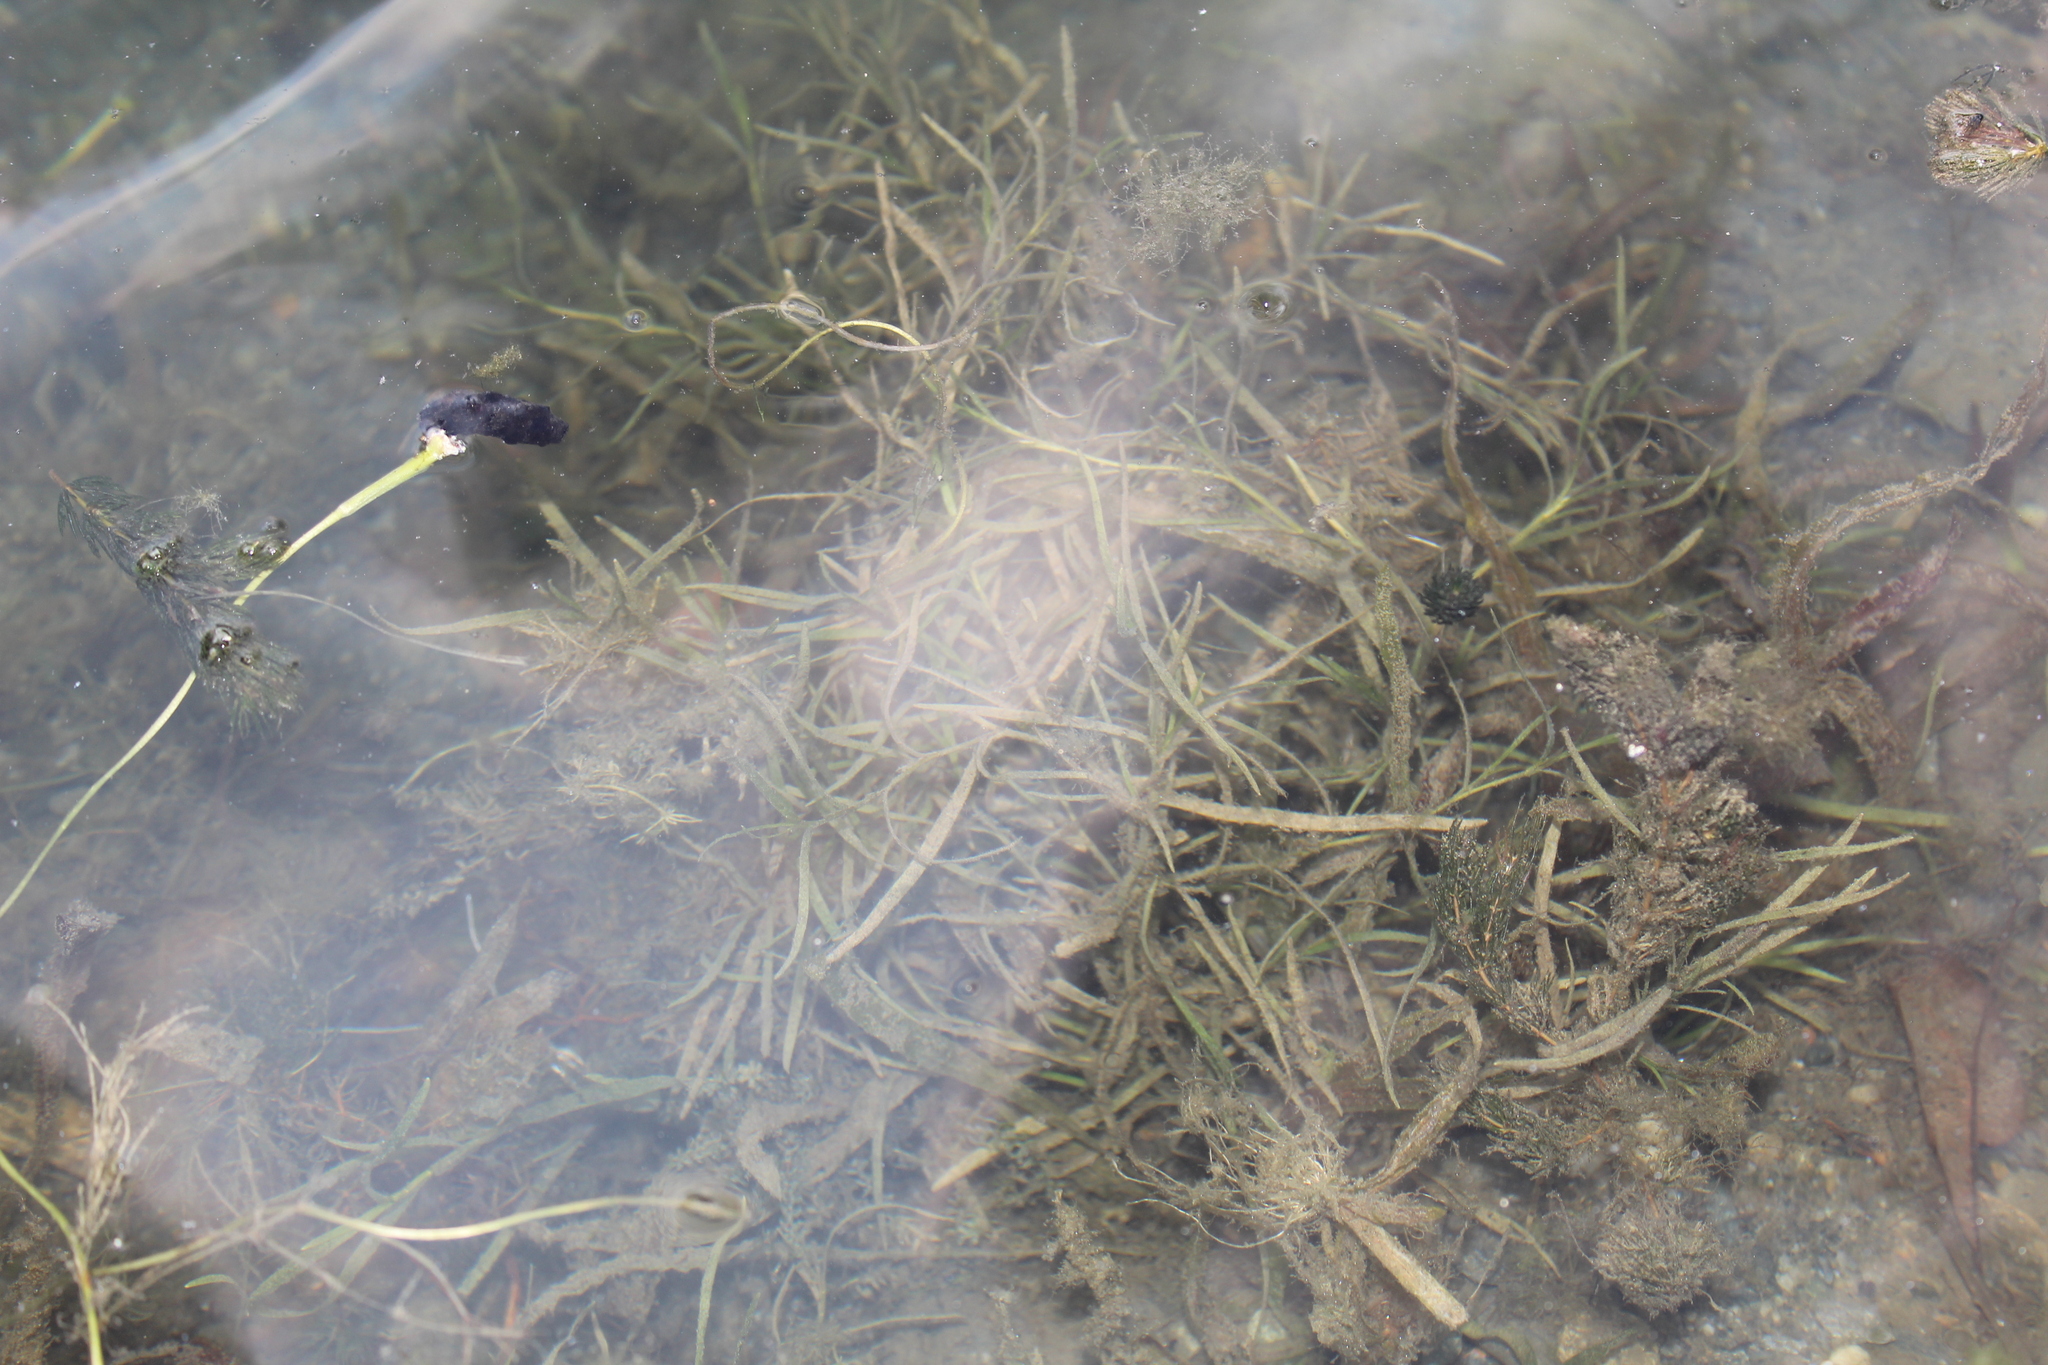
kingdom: Plantae
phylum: Tracheophyta
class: Liliopsida
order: Alismatales
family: Potamogetonaceae
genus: Potamogeton
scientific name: Potamogeton foliosus
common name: Leafy pondweed
